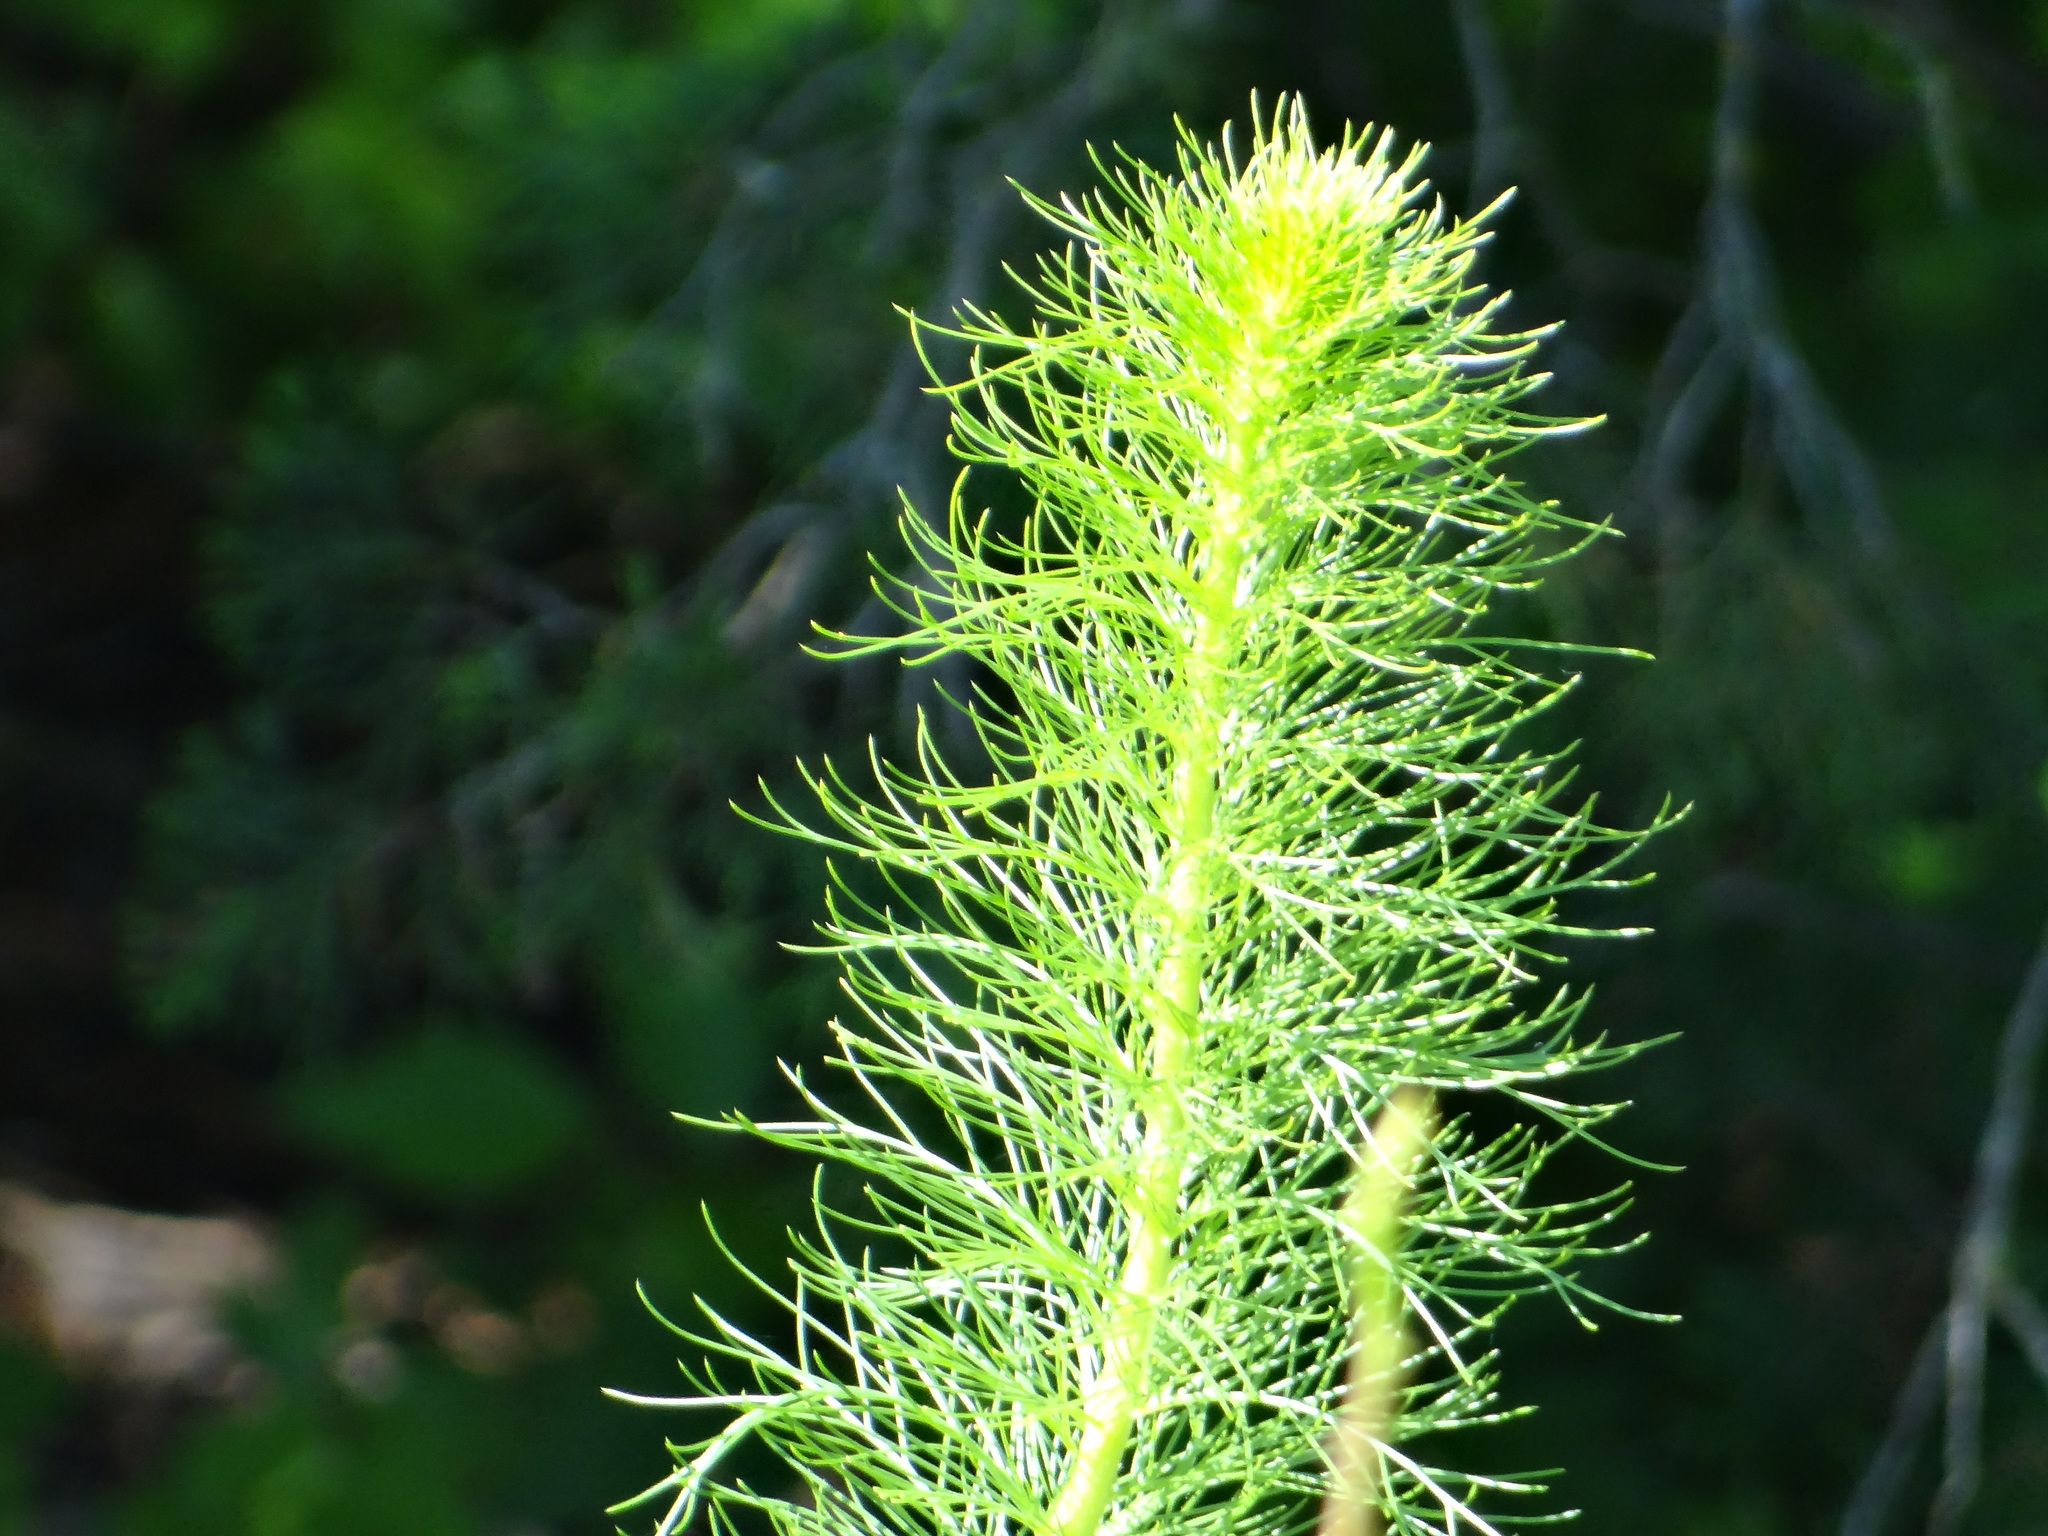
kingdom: Plantae
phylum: Tracheophyta
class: Magnoliopsida
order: Ericales
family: Polemoniaceae
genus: Ipomopsis
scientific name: Ipomopsis rubra
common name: Skyrocket
